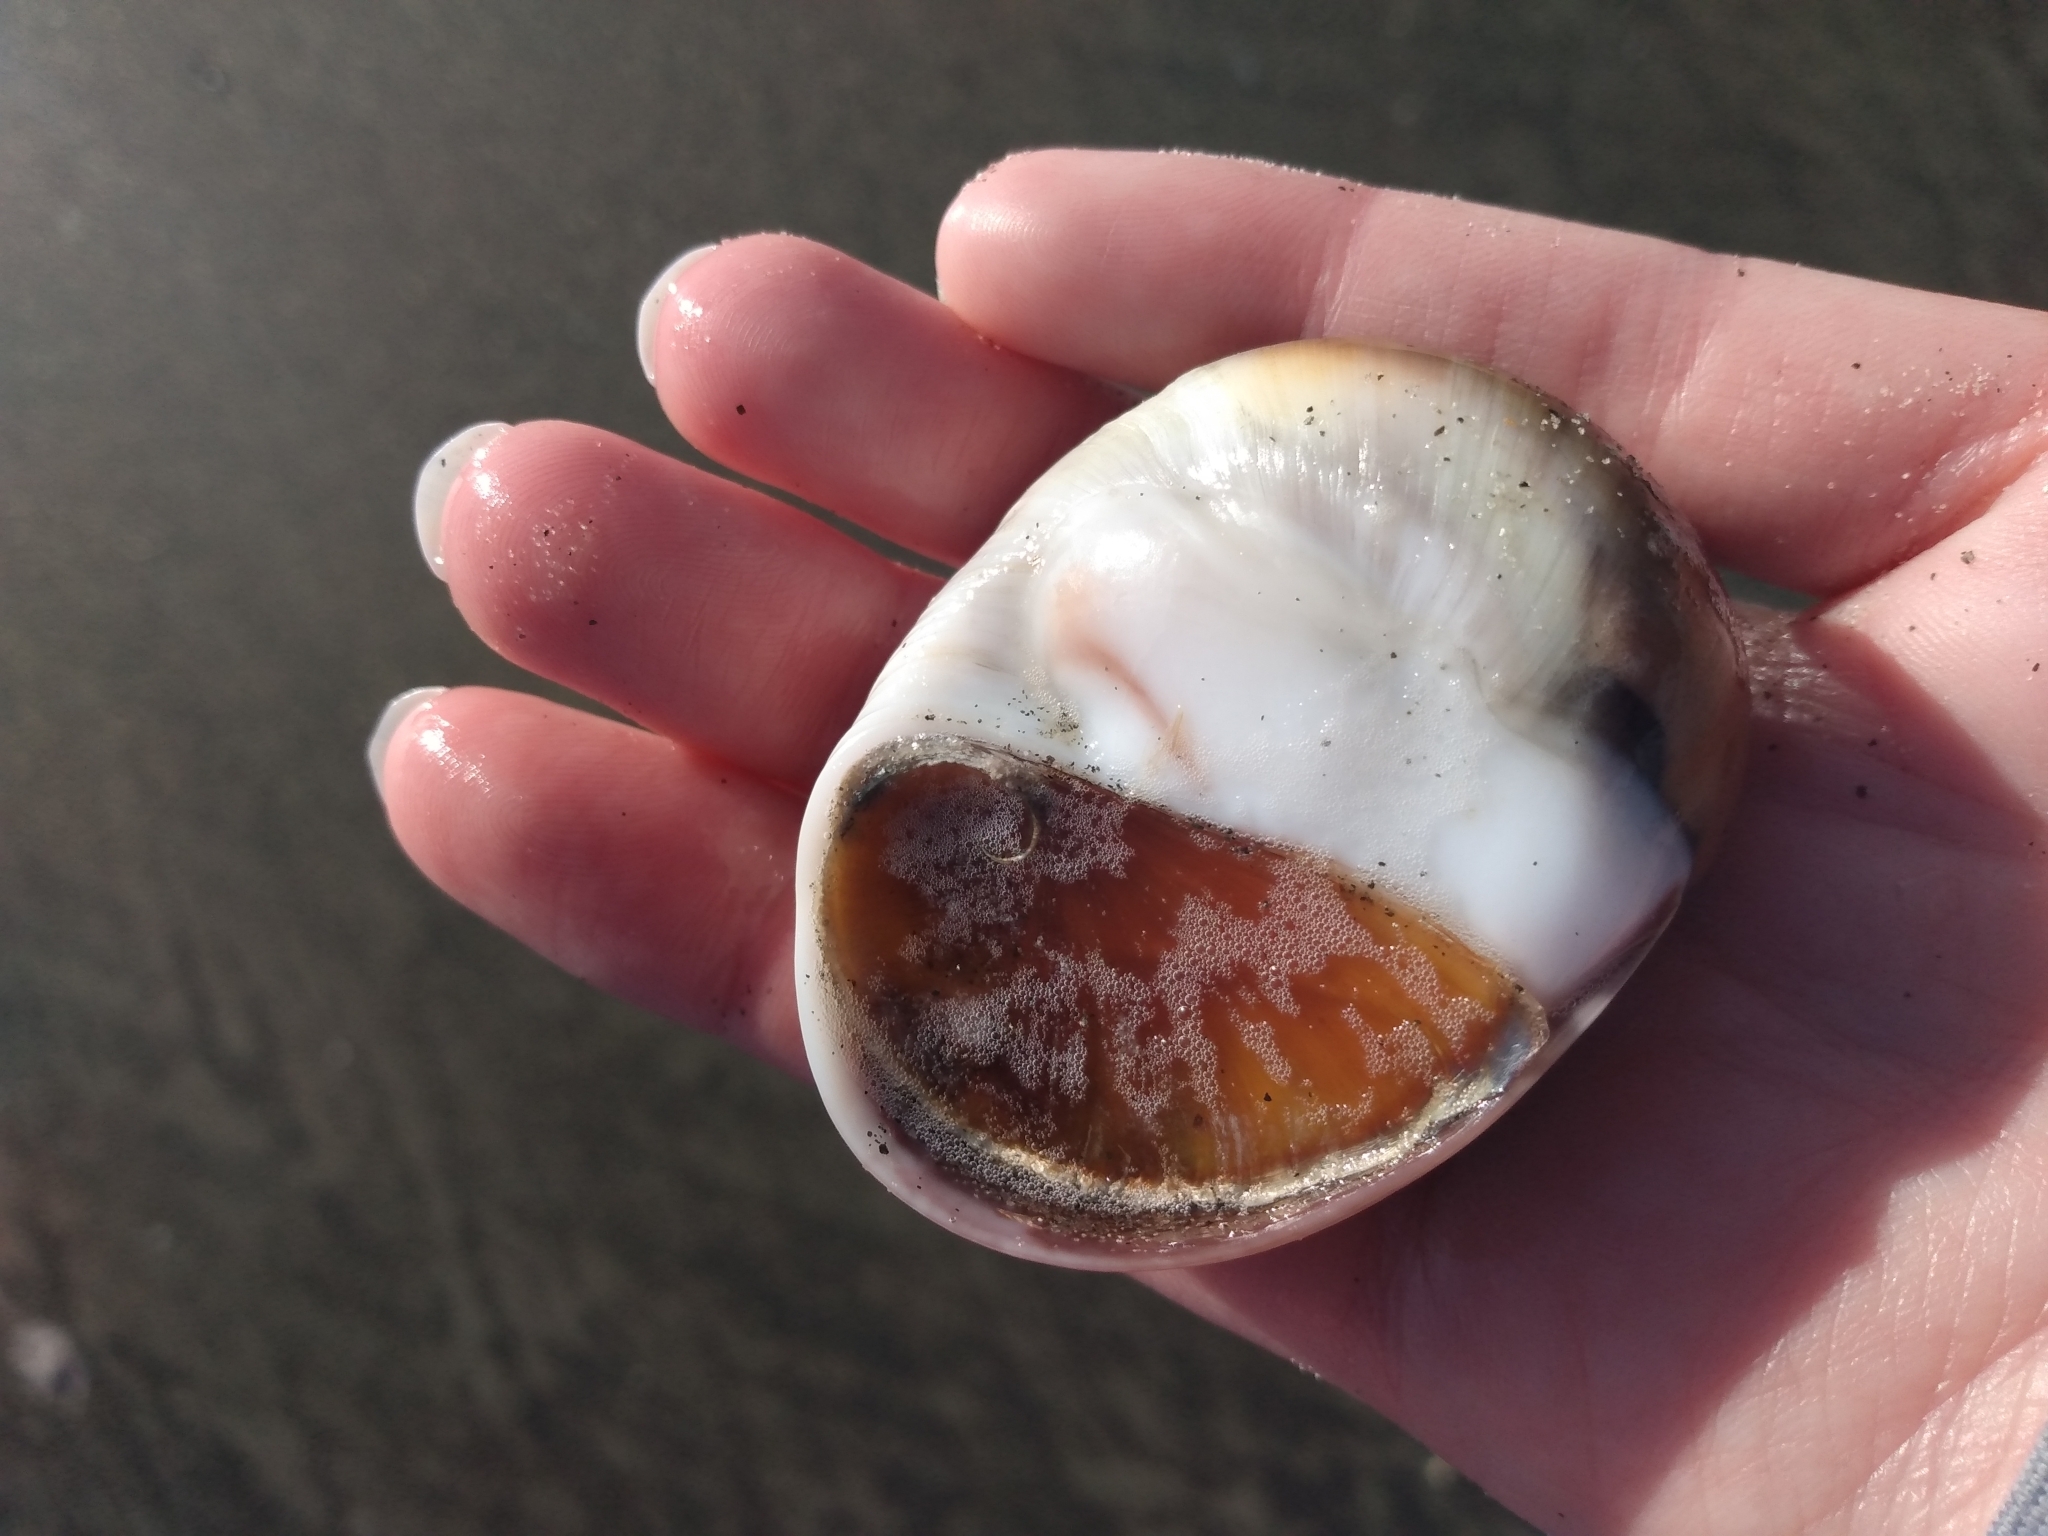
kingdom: Animalia
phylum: Mollusca
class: Gastropoda
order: Littorinimorpha
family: Naticidae
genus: Glossaulax
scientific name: Glossaulax reclusiana
